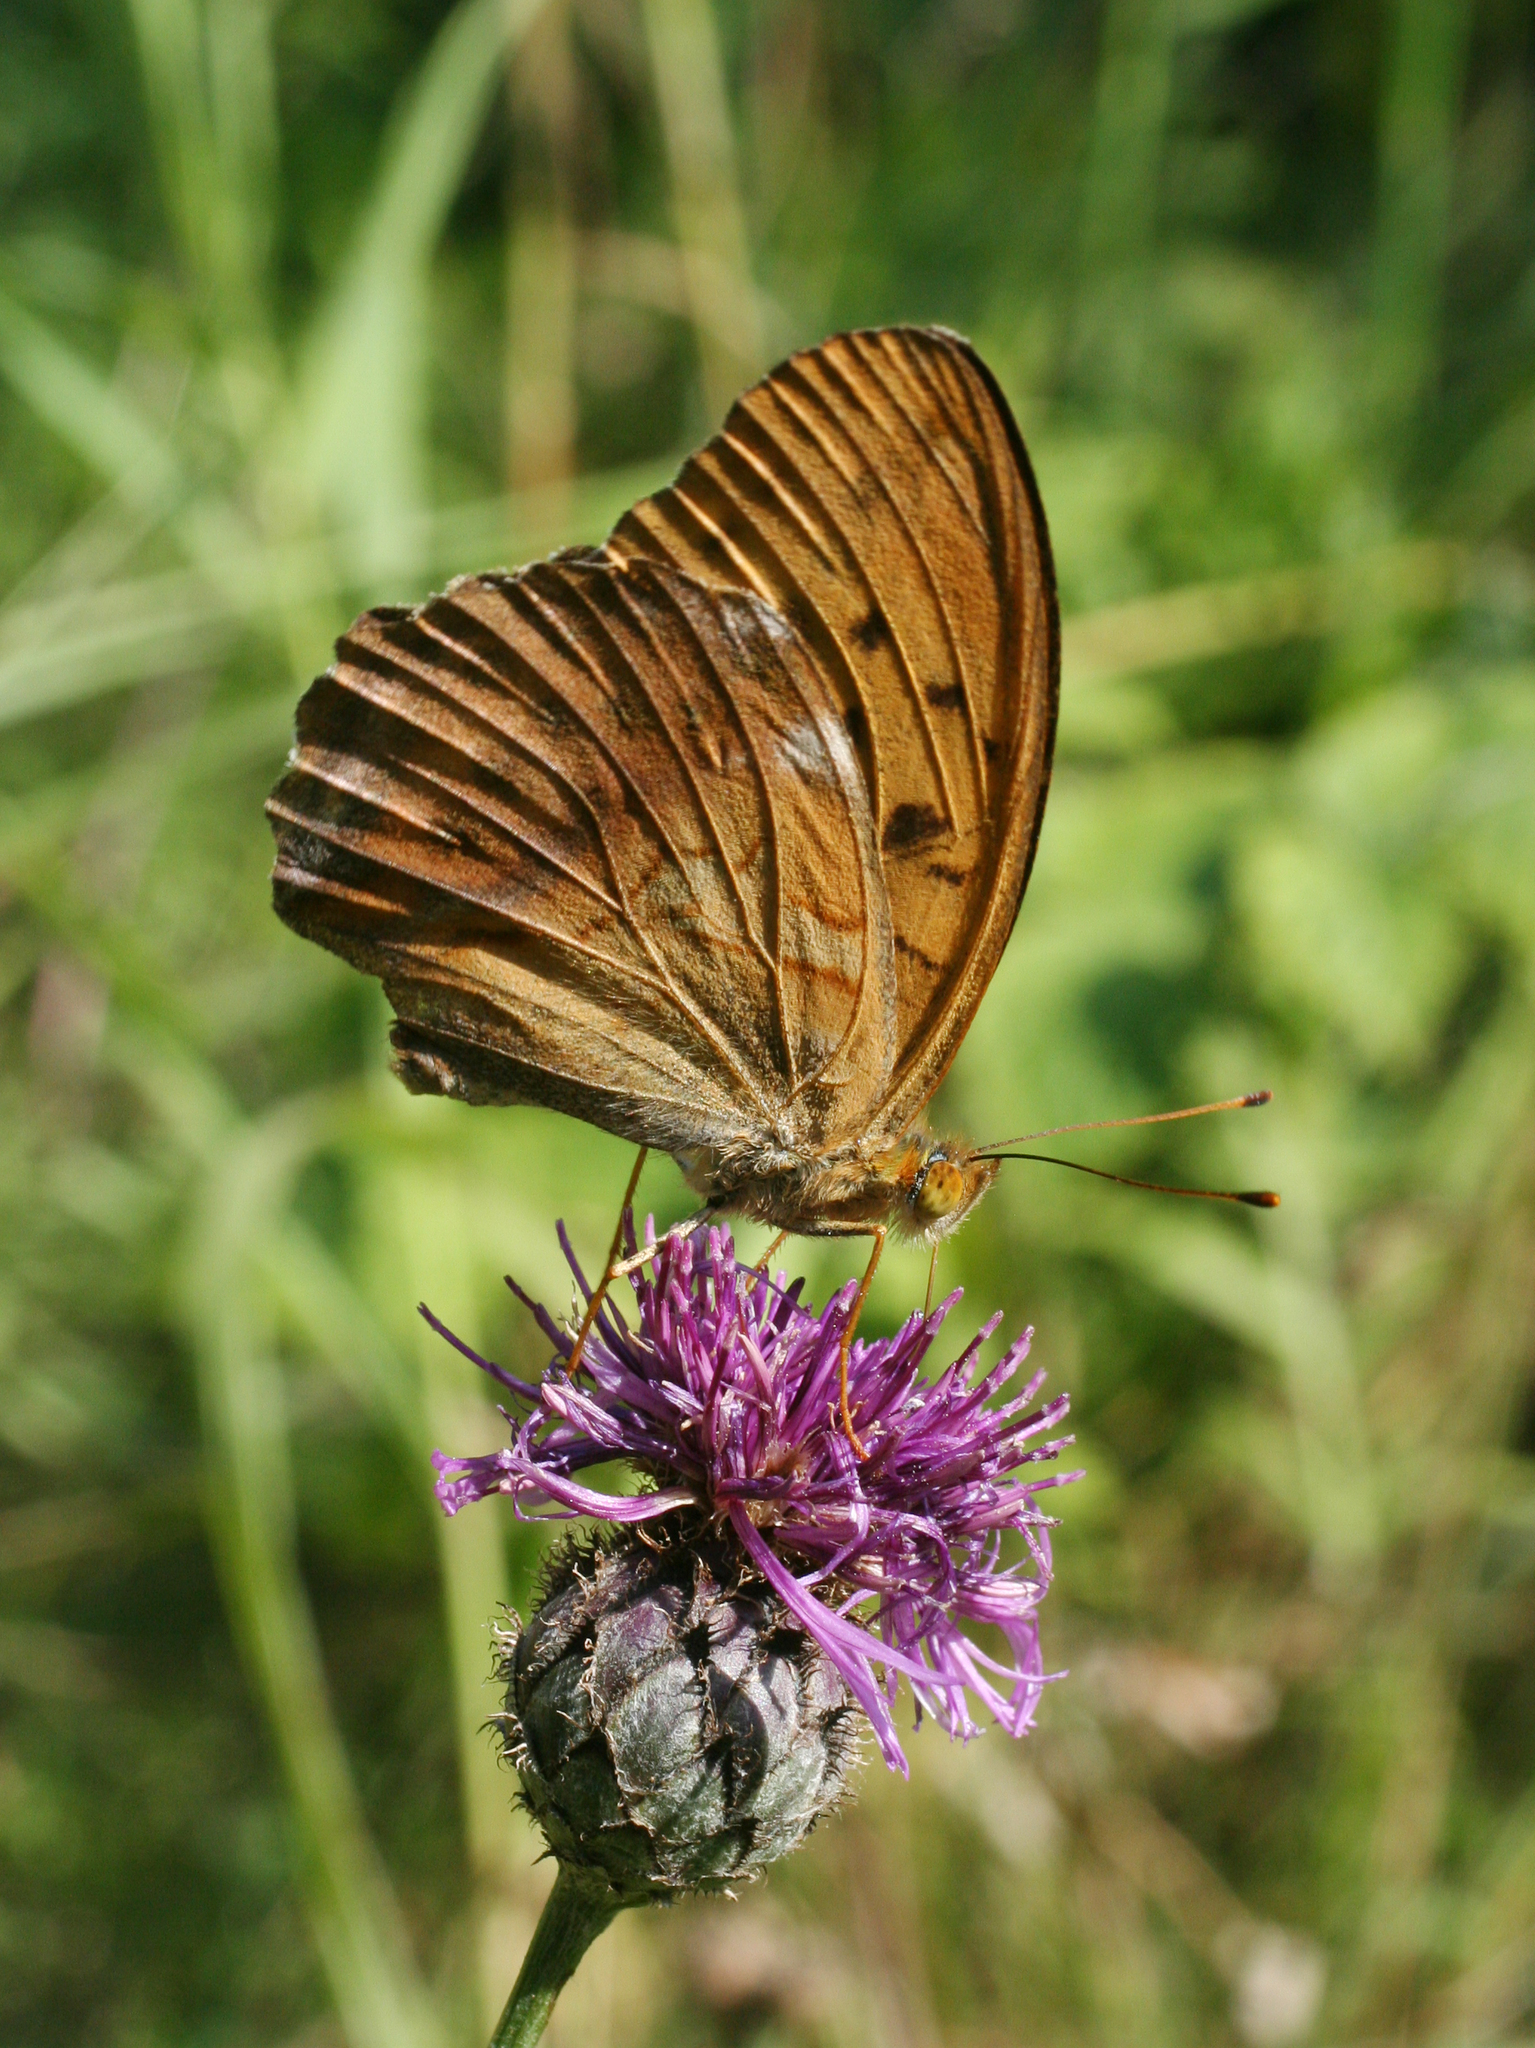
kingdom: Animalia
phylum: Arthropoda
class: Insecta
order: Lepidoptera
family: Nymphalidae
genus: Damora
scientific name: Damora sagana
